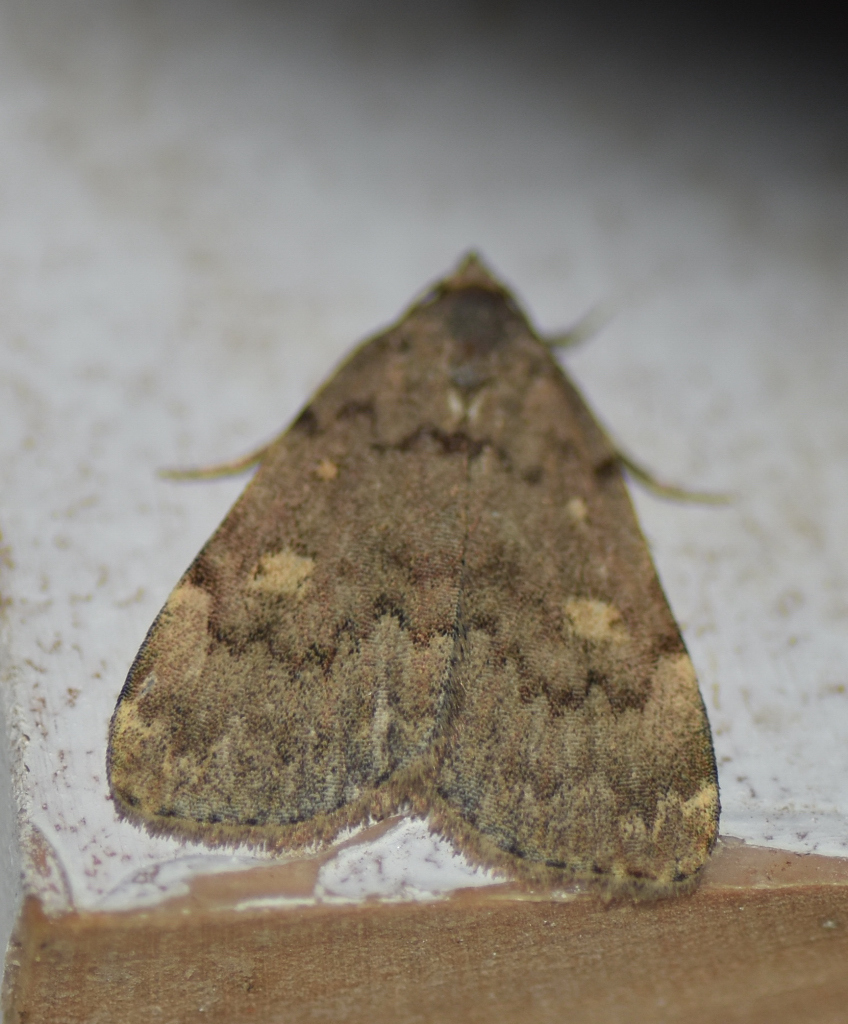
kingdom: Animalia
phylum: Arthropoda
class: Insecta
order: Lepidoptera
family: Erebidae
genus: Idia
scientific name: Idia aemula
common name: Common idia moth
